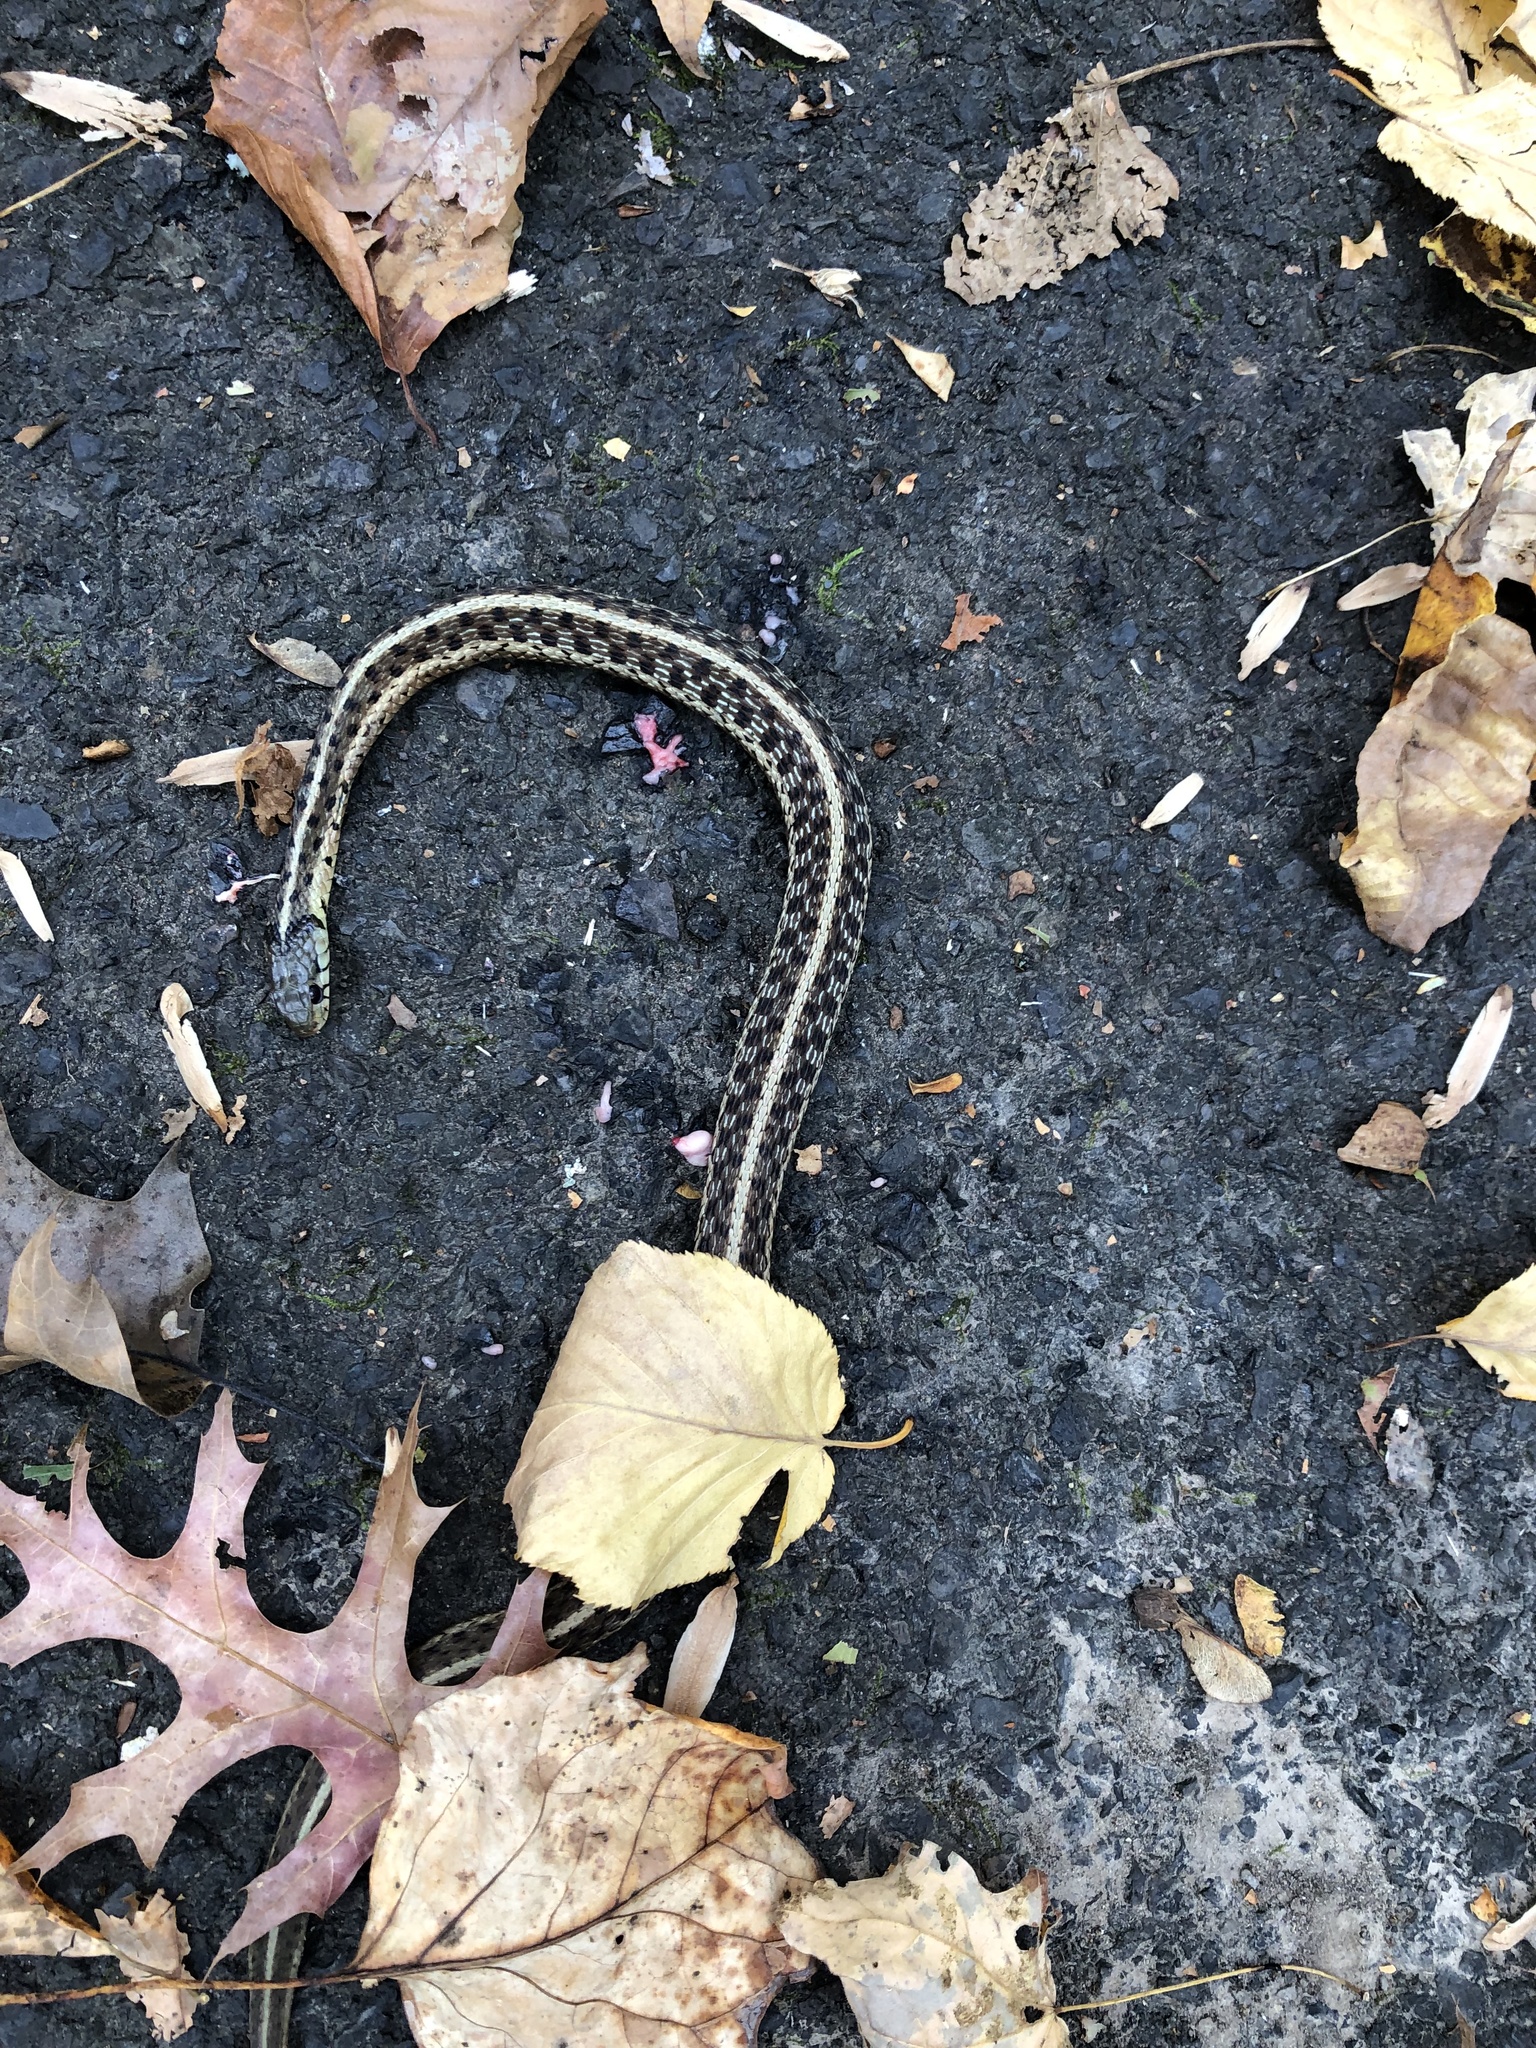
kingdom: Animalia
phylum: Chordata
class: Squamata
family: Colubridae
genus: Thamnophis
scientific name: Thamnophis sirtalis
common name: Common garter snake
